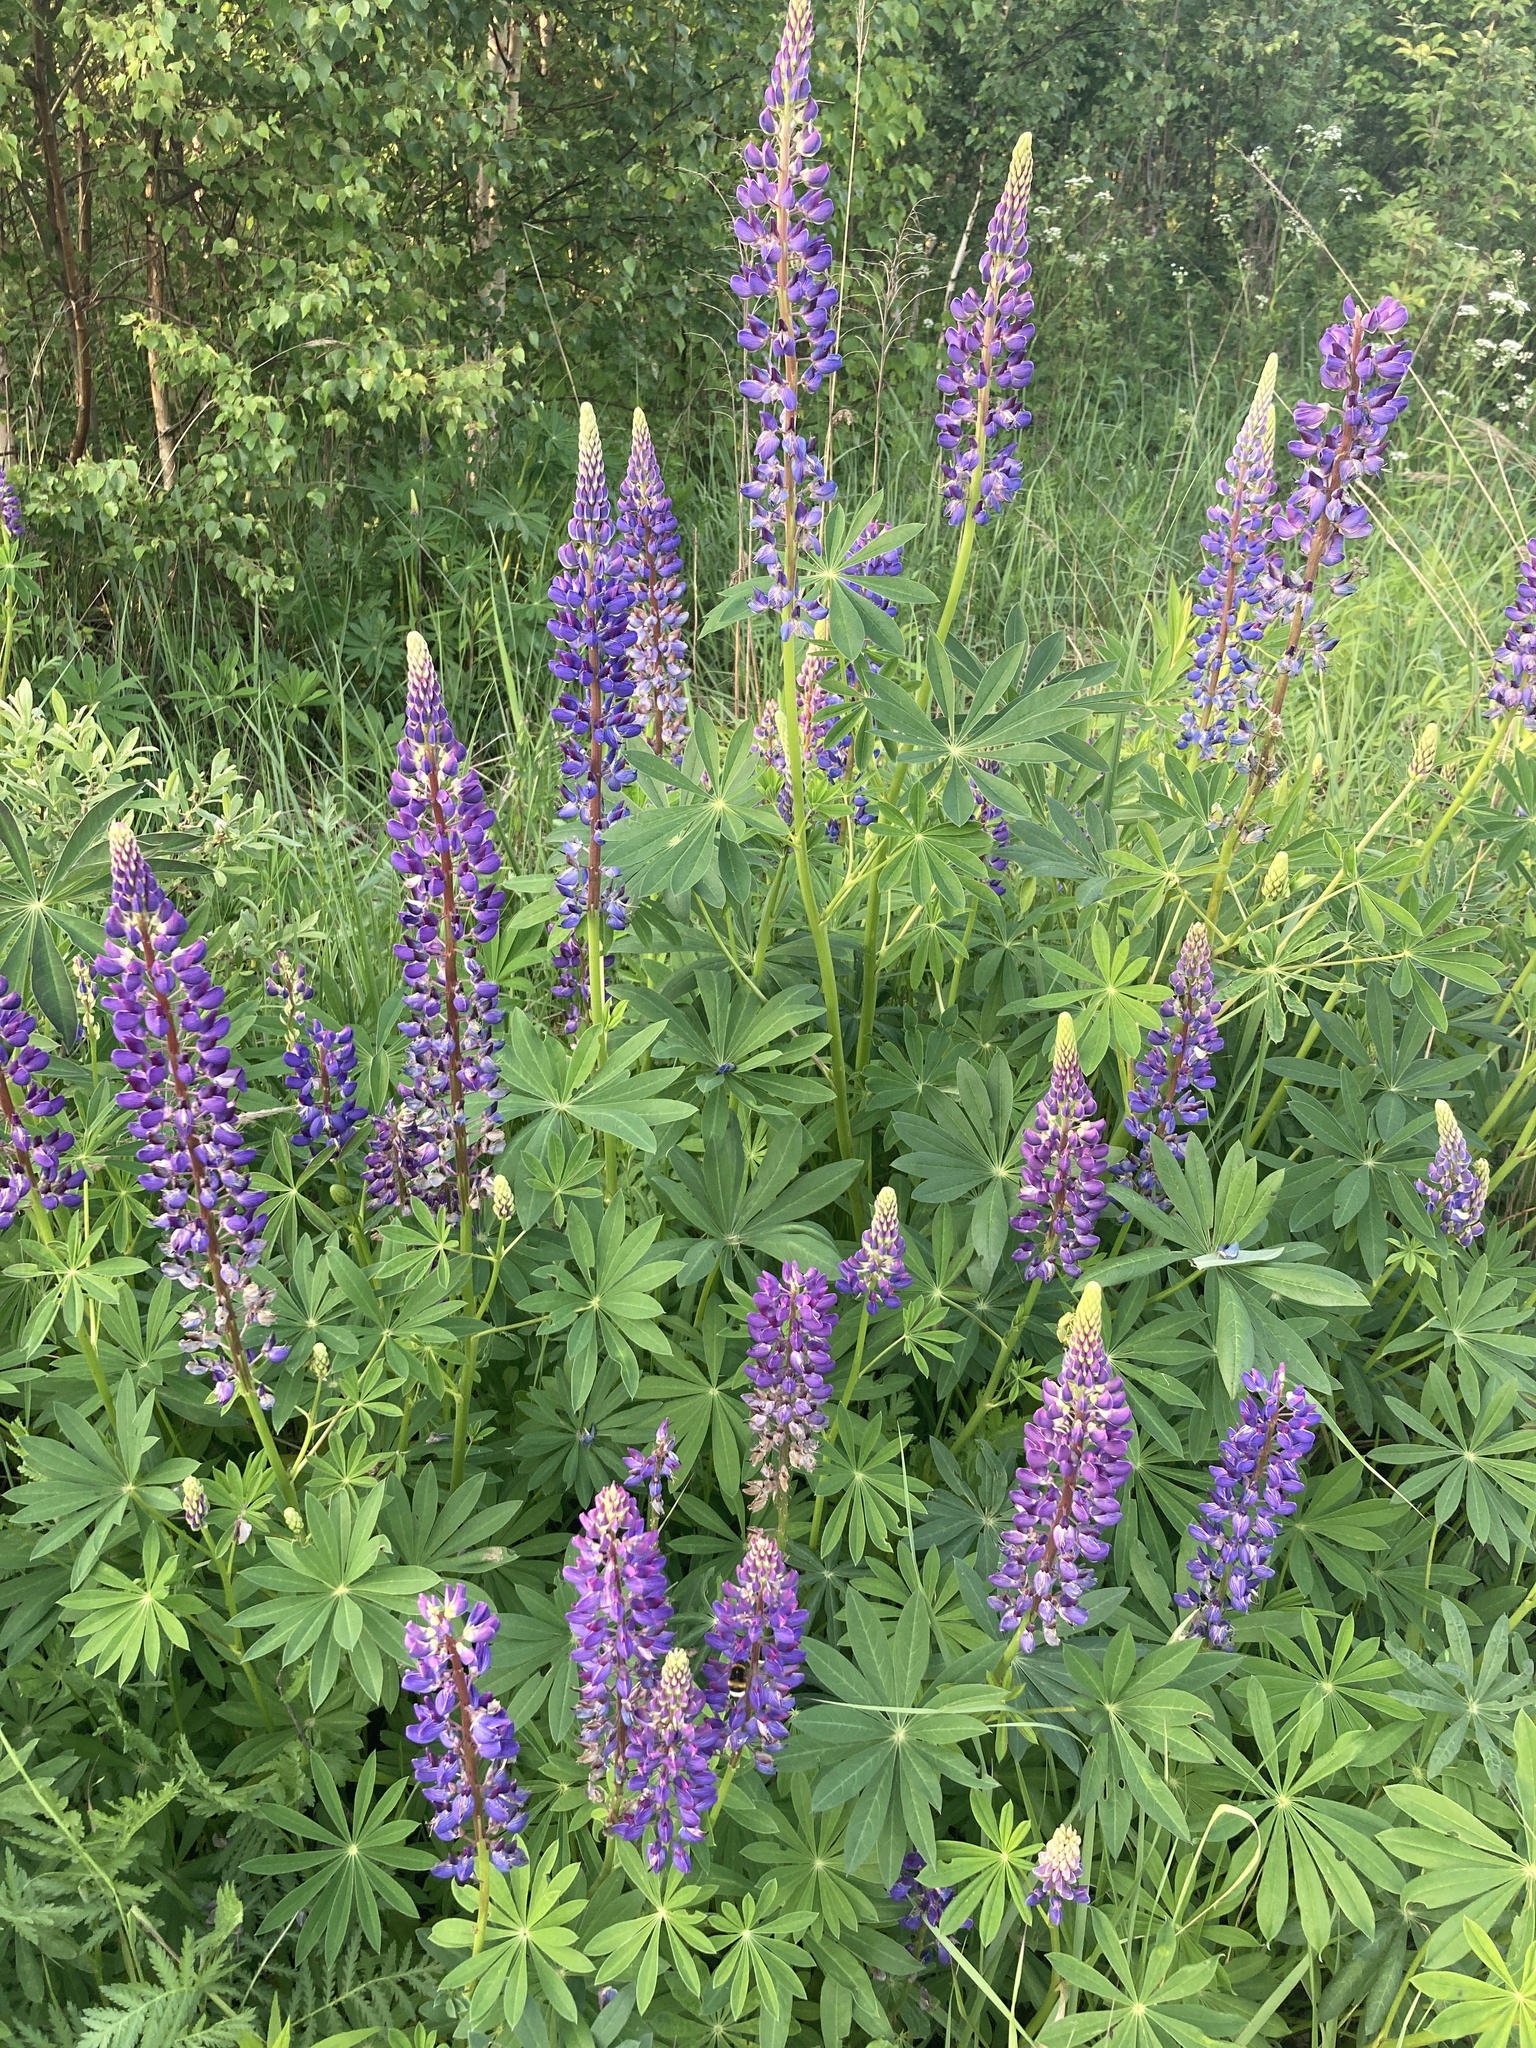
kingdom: Plantae
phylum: Tracheophyta
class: Magnoliopsida
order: Fabales
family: Fabaceae
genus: Lupinus
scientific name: Lupinus polyphyllus
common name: Garden lupin
